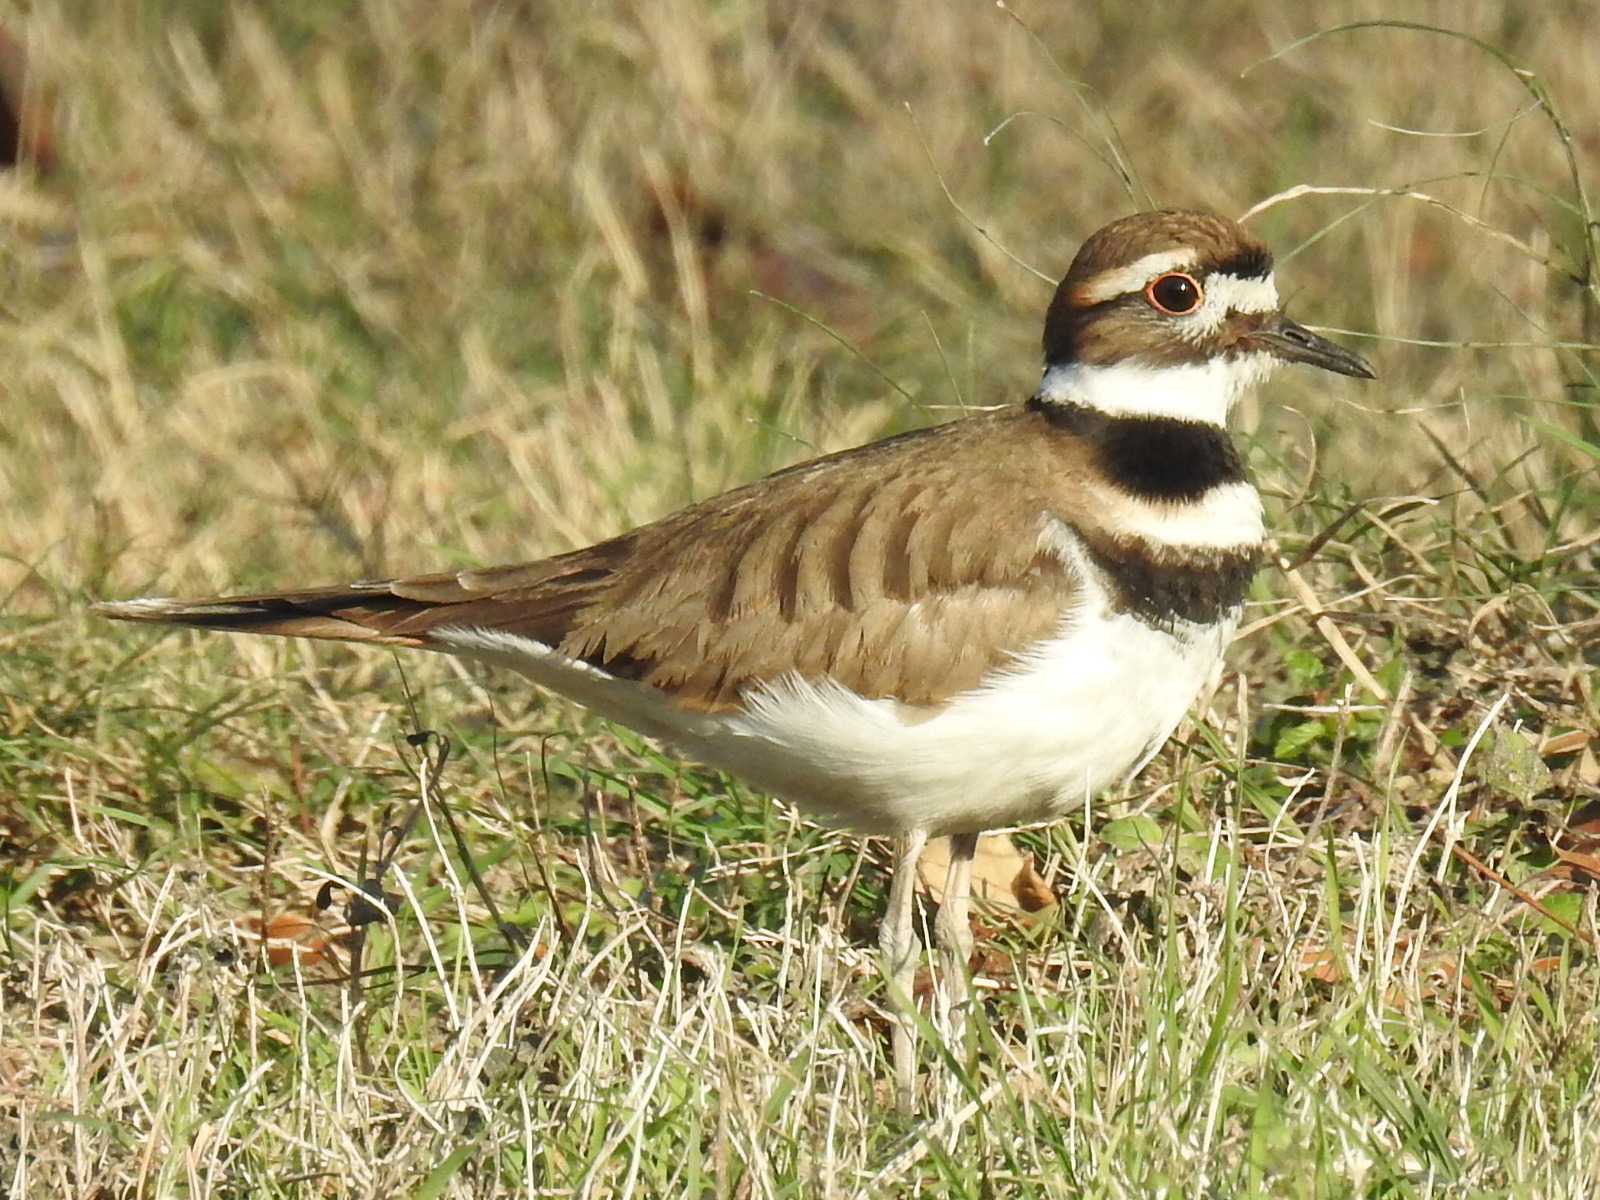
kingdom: Animalia
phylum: Chordata
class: Aves
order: Charadriiformes
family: Charadriidae
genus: Charadrius
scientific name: Charadrius vociferus
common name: Killdeer
